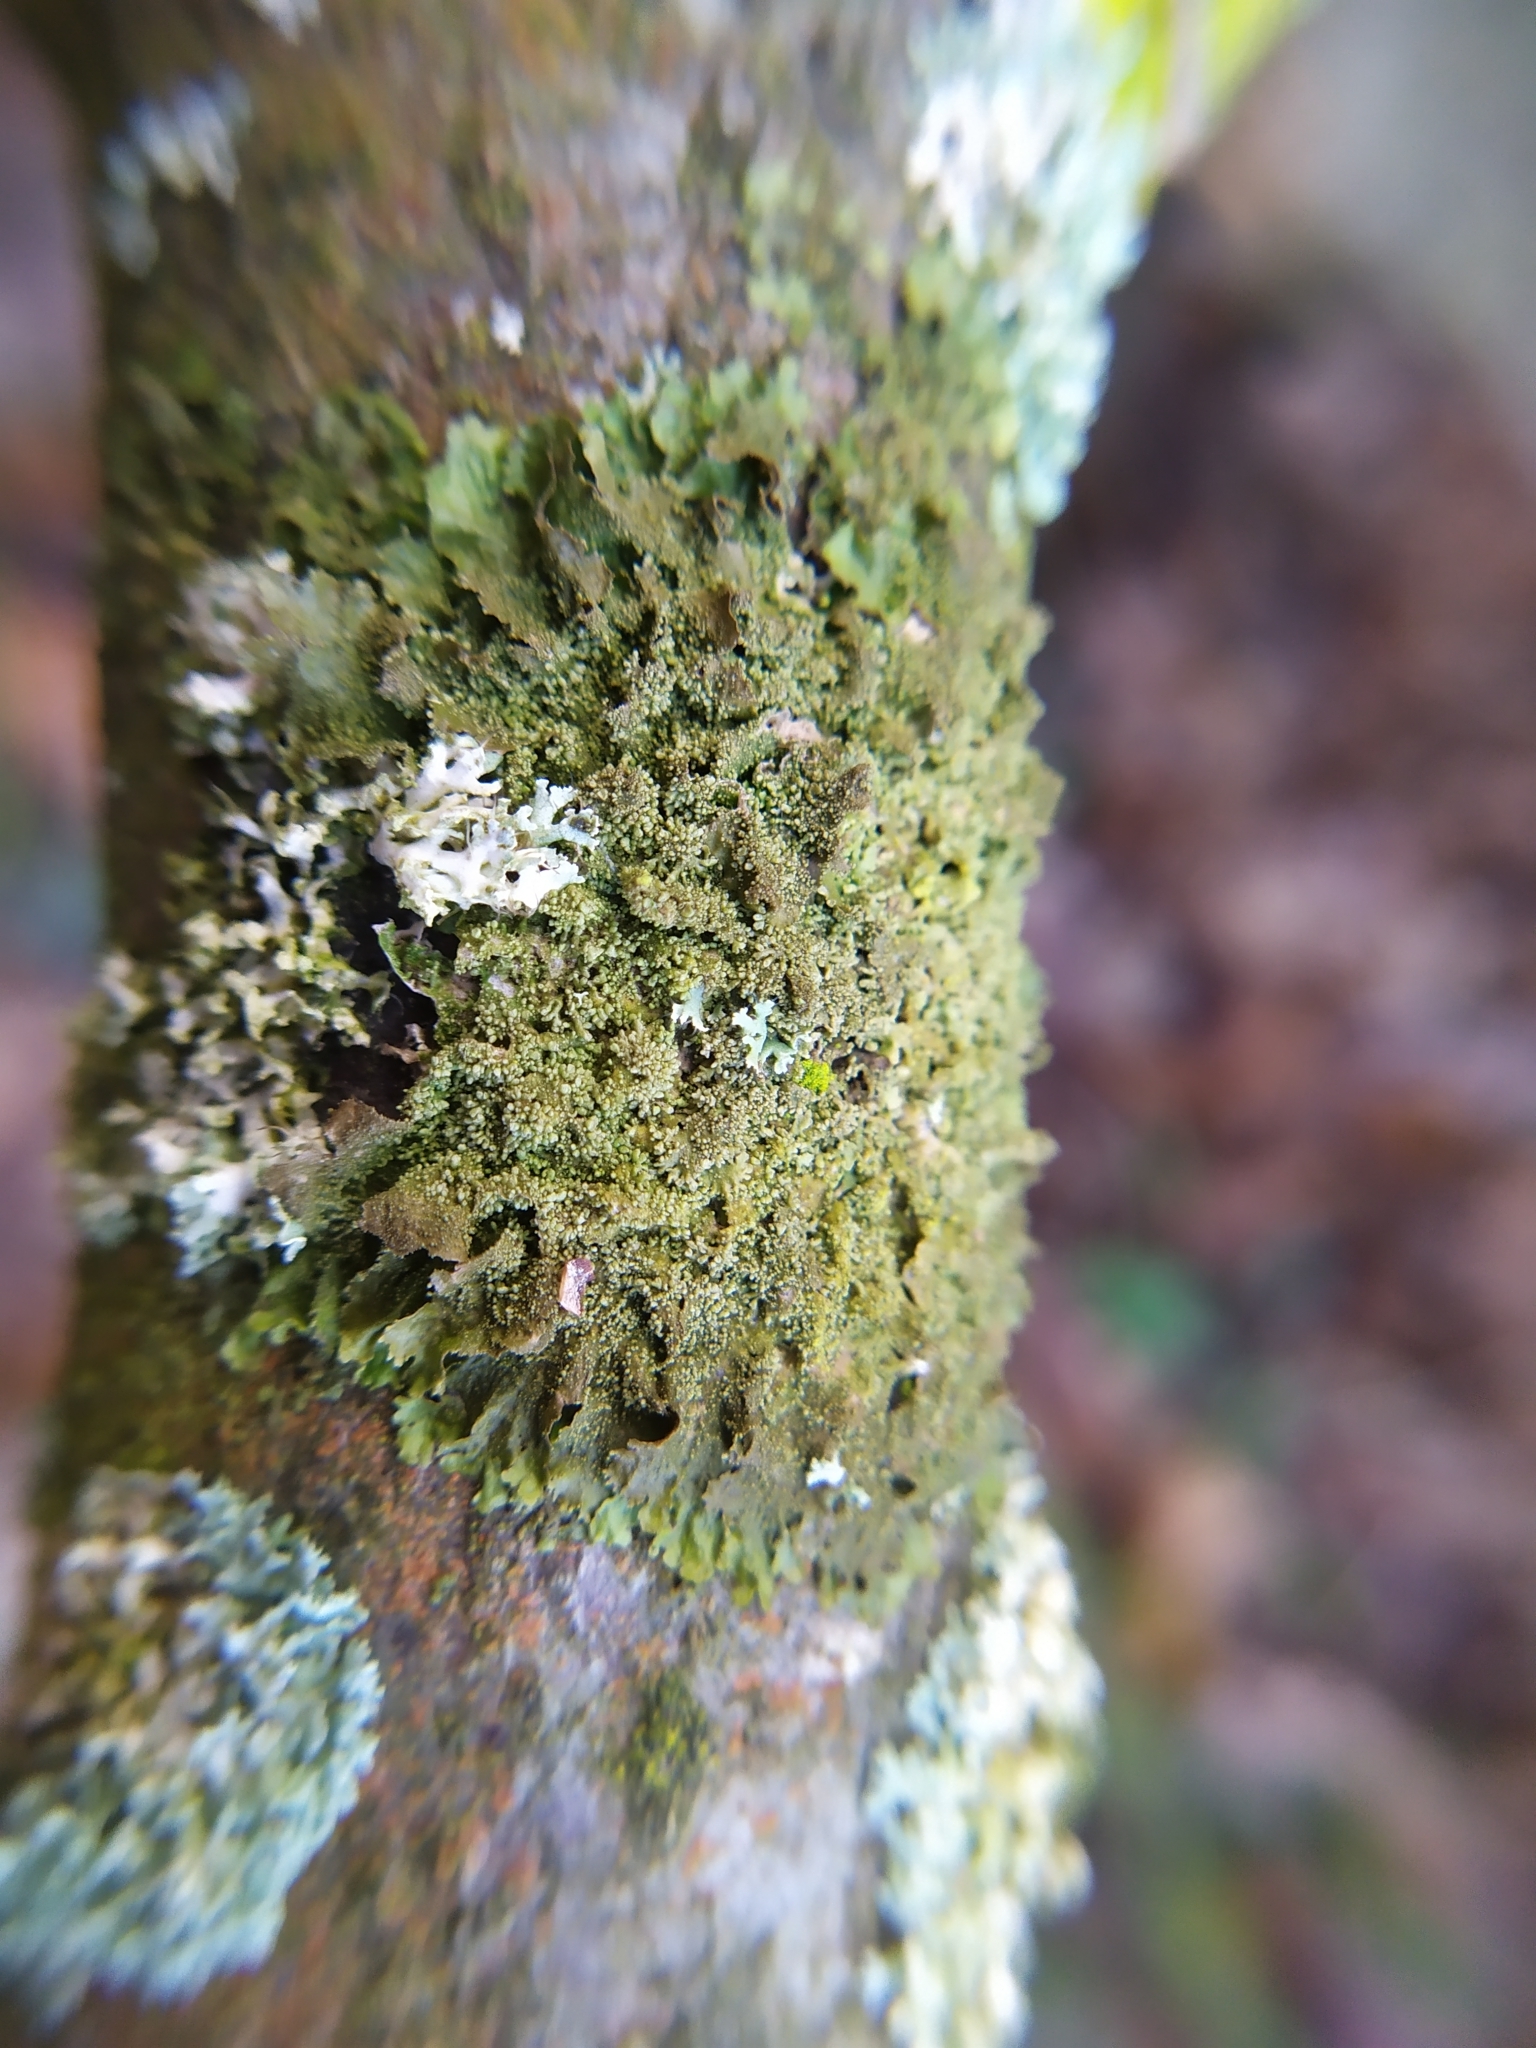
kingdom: Fungi
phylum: Ascomycota
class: Lecanoromycetes
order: Lecanorales
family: Parmeliaceae
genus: Melanohalea
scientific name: Melanohalea exasperatula
